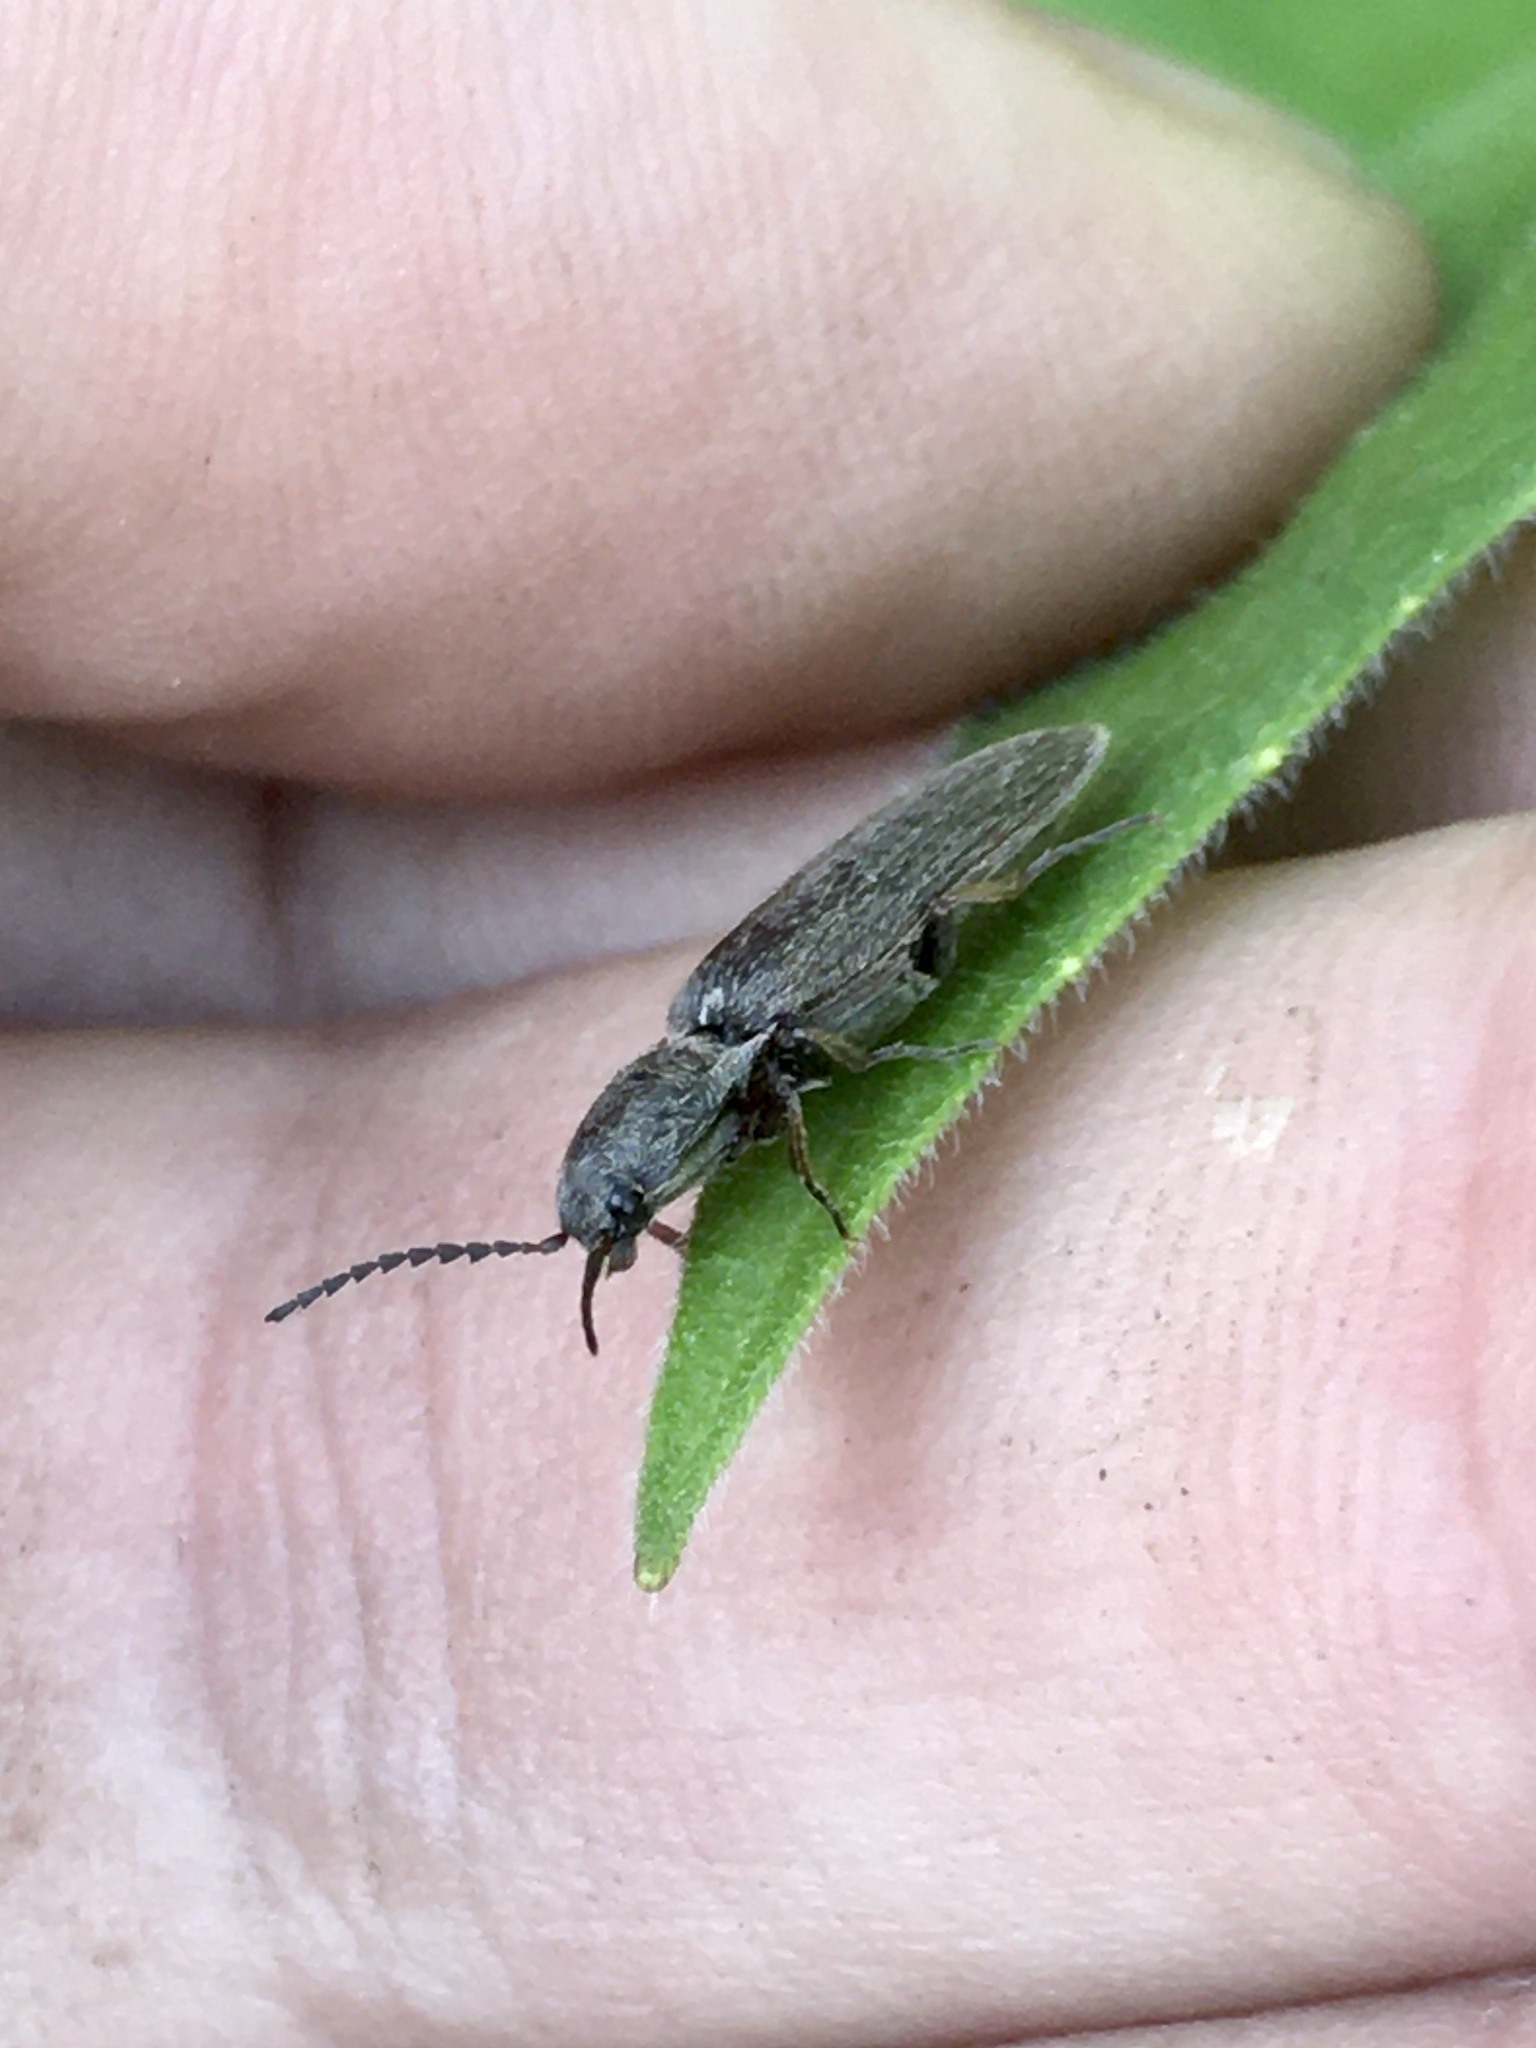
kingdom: Animalia
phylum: Arthropoda
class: Insecta
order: Coleoptera
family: Elateridae
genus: Sylvanelater
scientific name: Sylvanelater cylindriformis
